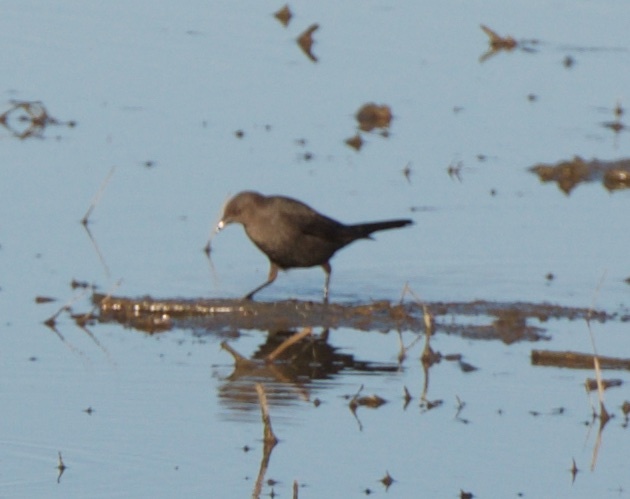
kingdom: Animalia
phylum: Chordata
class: Aves
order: Passeriformes
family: Icteridae
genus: Euphagus
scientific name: Euphagus cyanocephalus
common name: Brewer's blackbird
